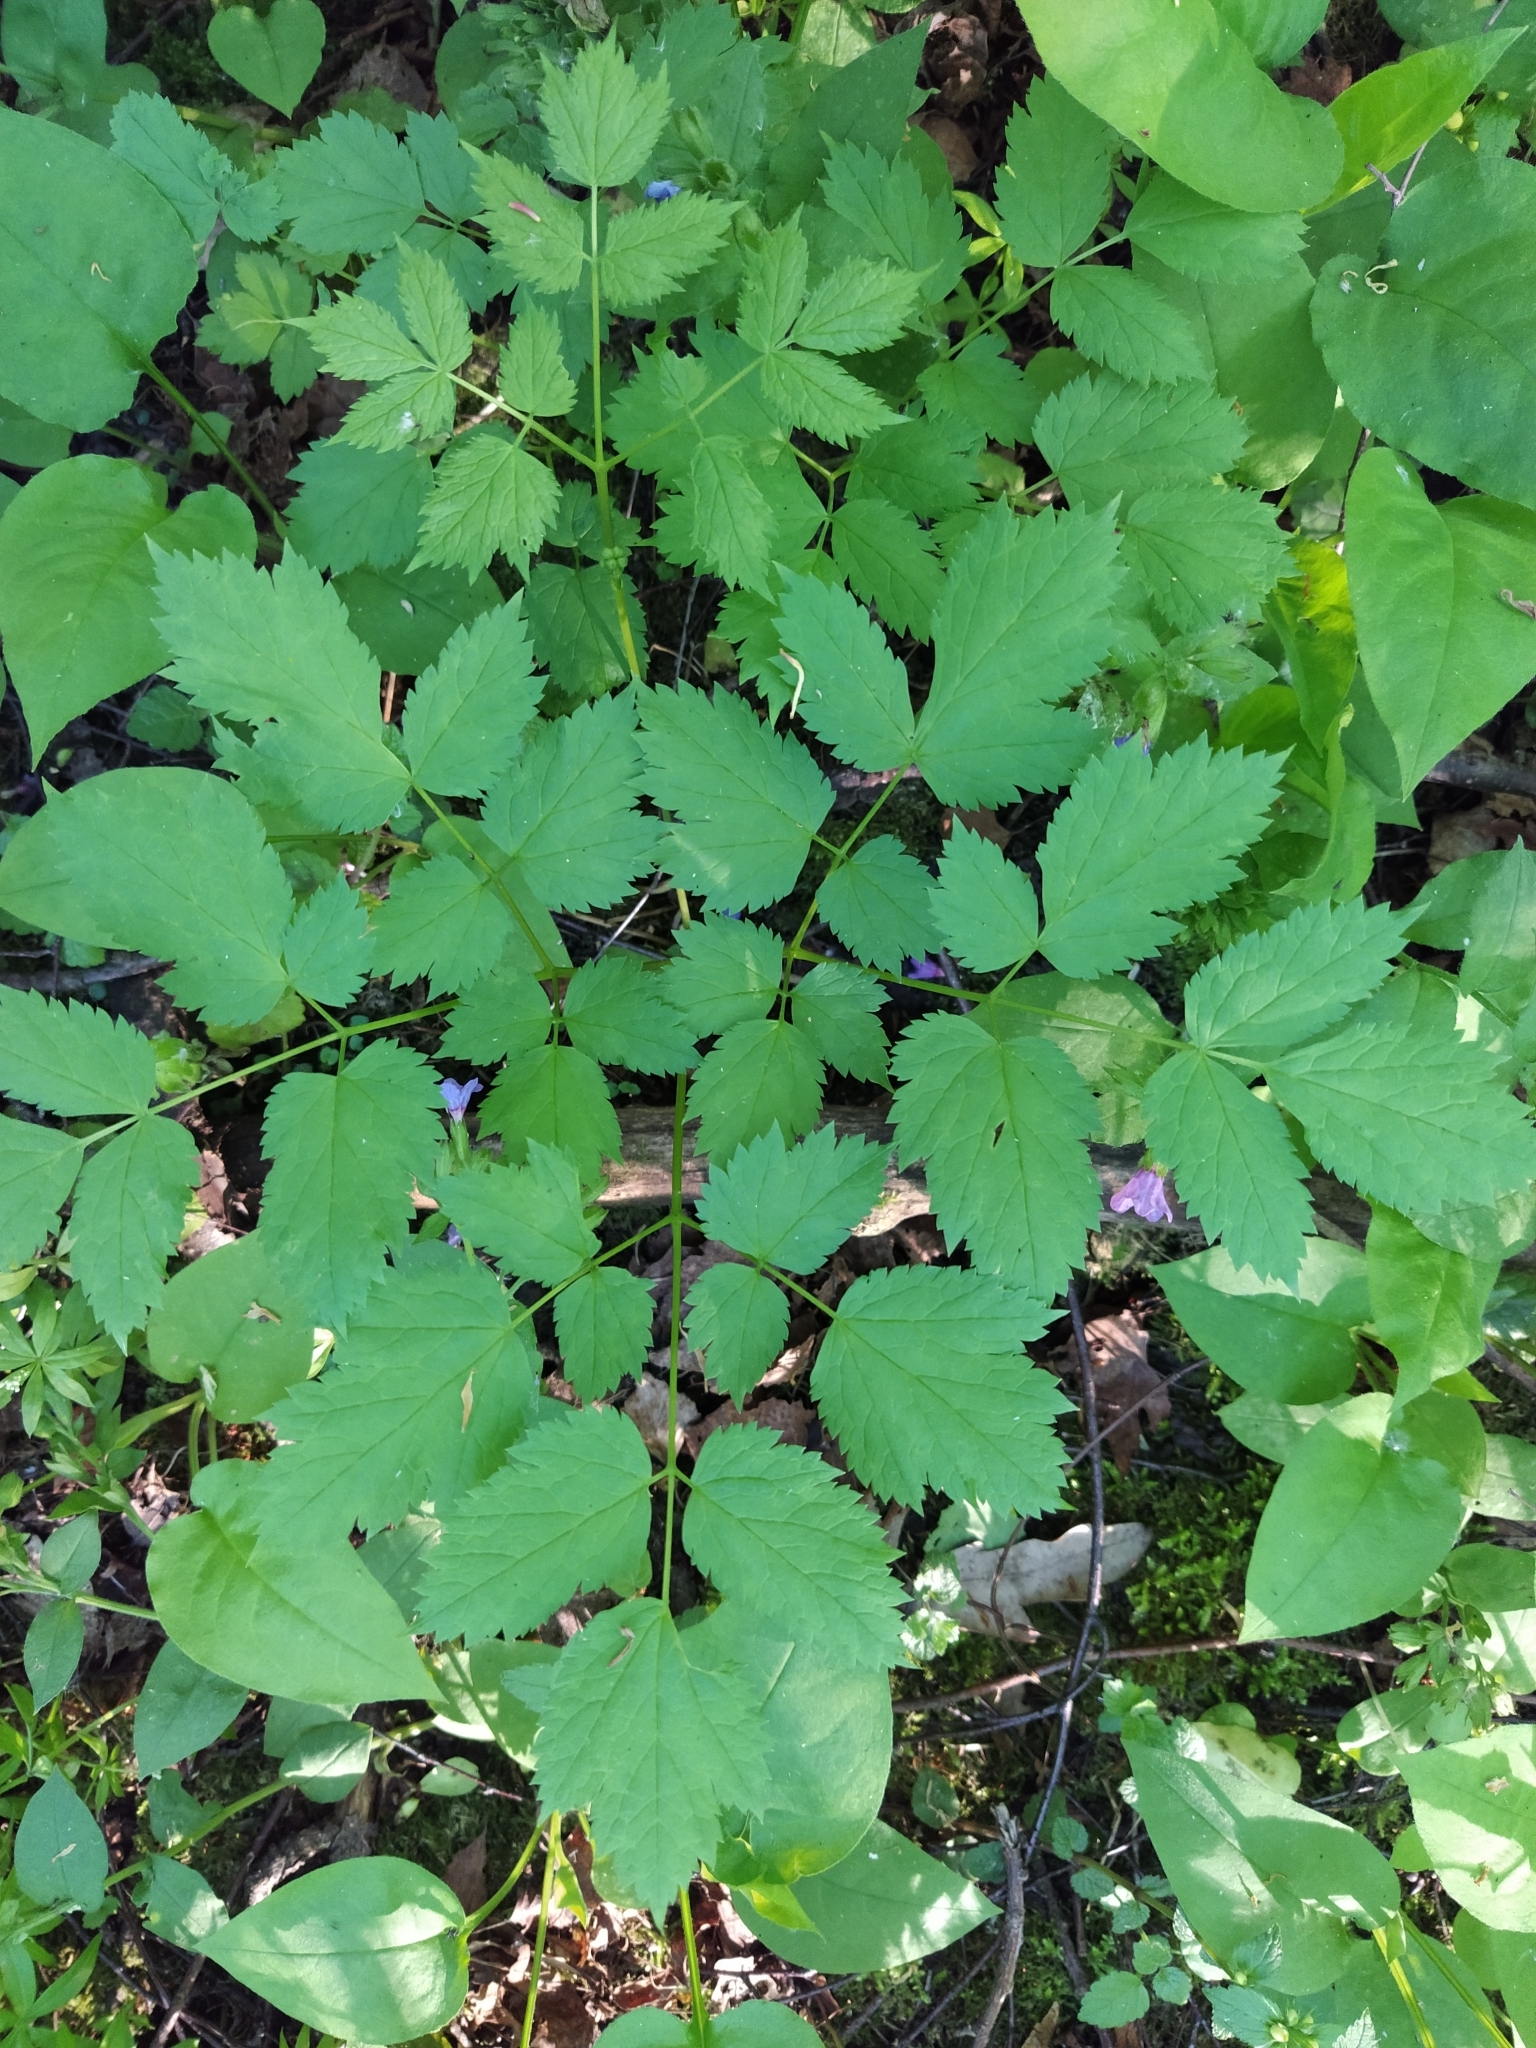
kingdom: Plantae
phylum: Tracheophyta
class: Magnoliopsida
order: Ranunculales
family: Ranunculaceae
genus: Actaea
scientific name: Actaea spicata
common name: Baneberry
